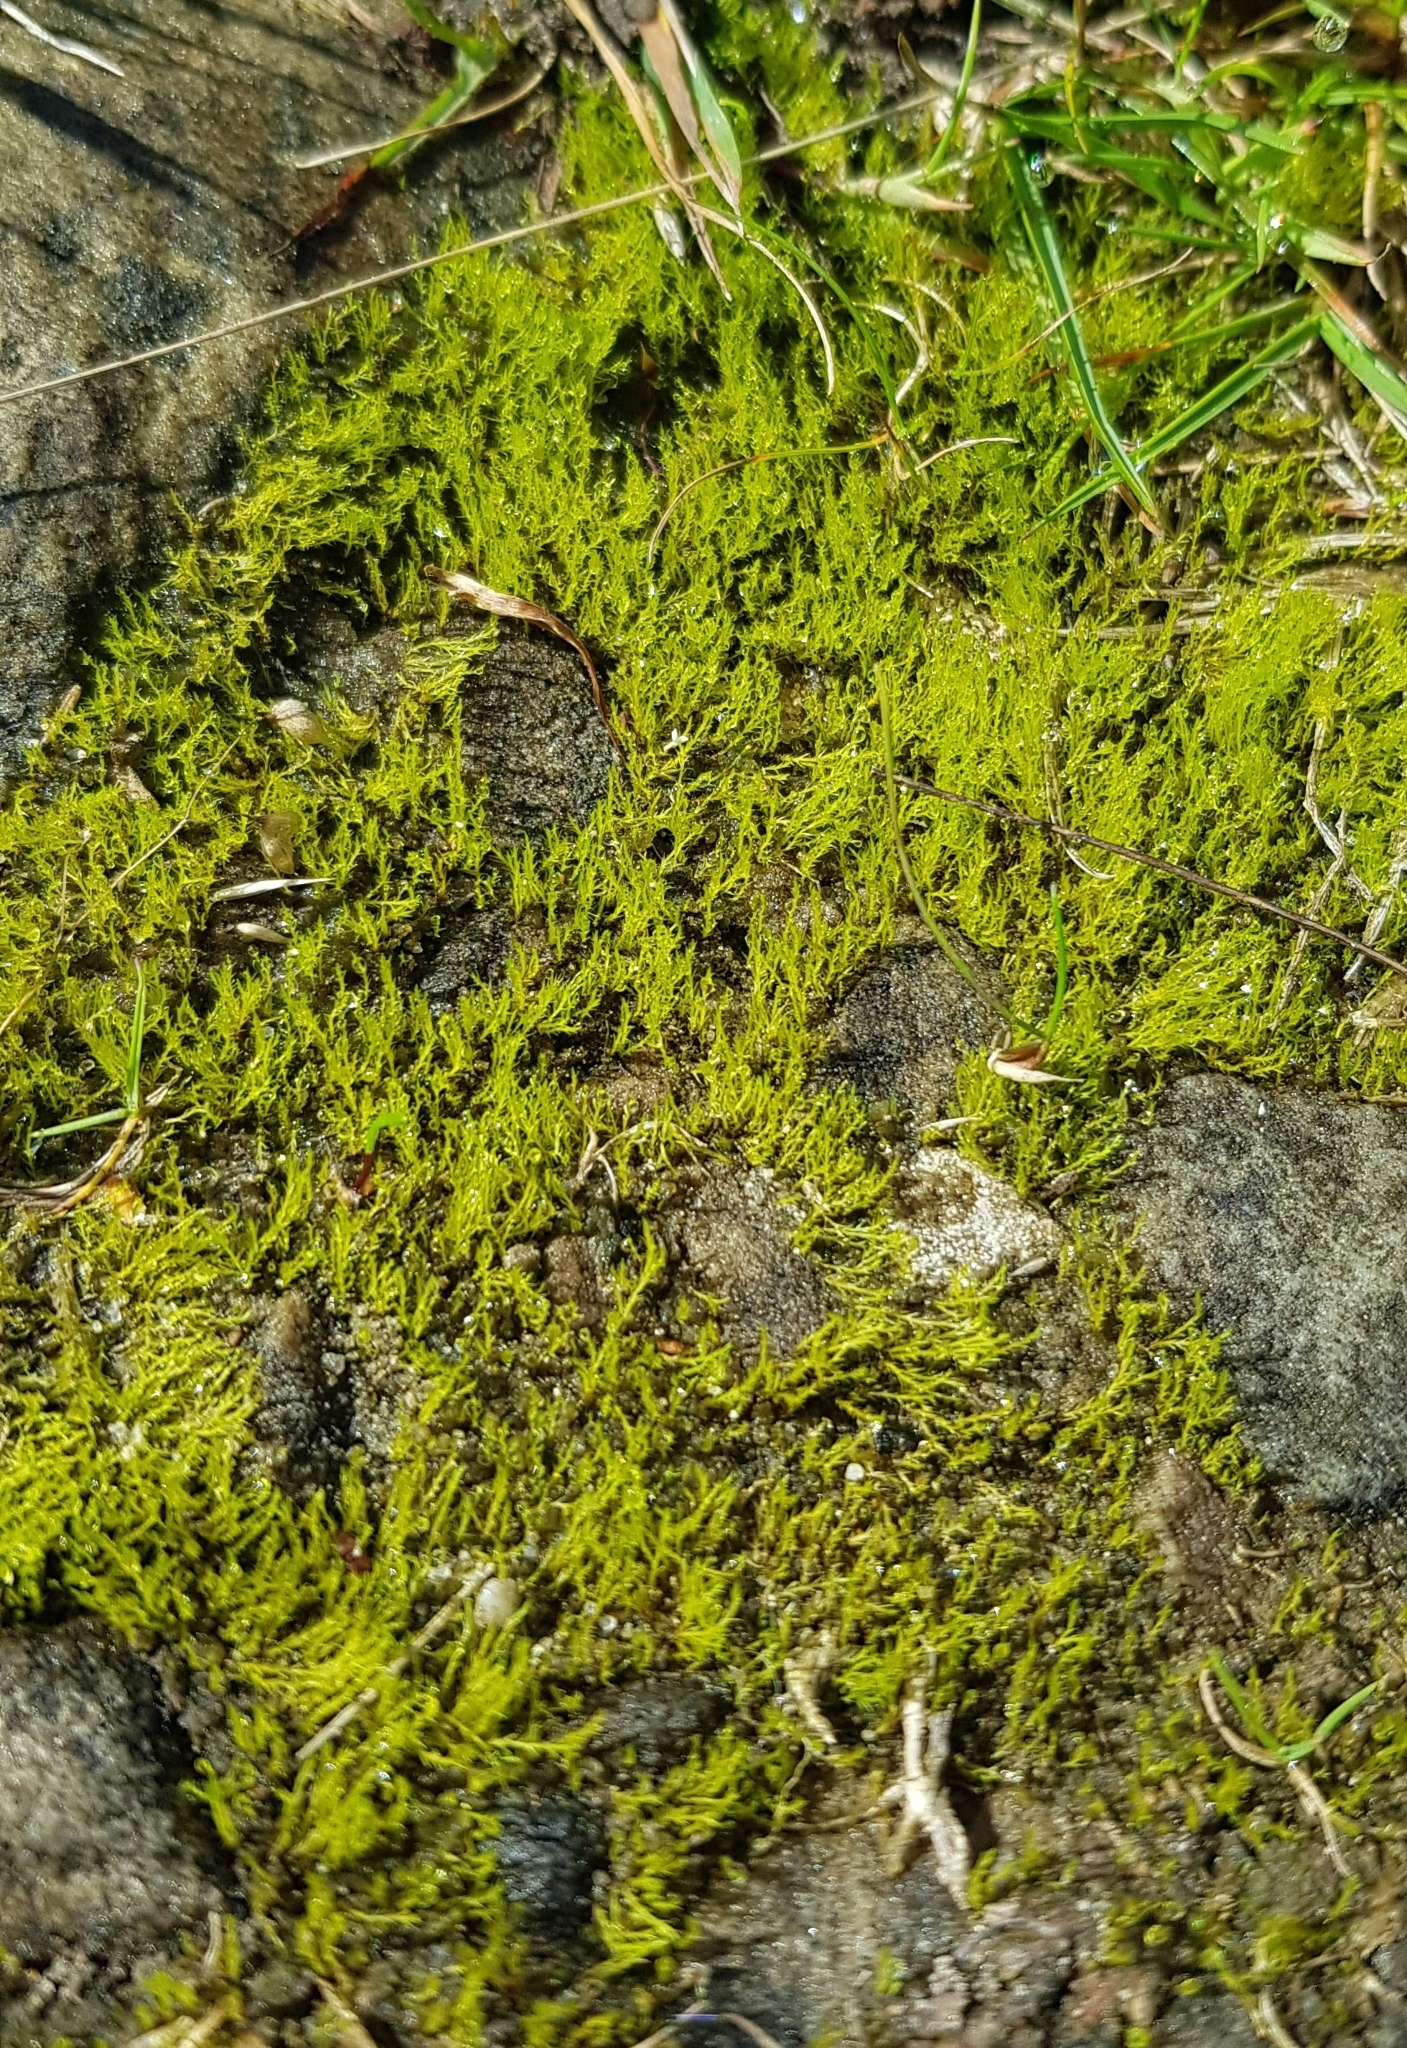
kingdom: Plantae
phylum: Bryophyta
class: Bryopsida
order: Archidiales
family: Archidiaceae
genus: Archidium
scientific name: Archidium alternifolium
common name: Clay earth-moss
